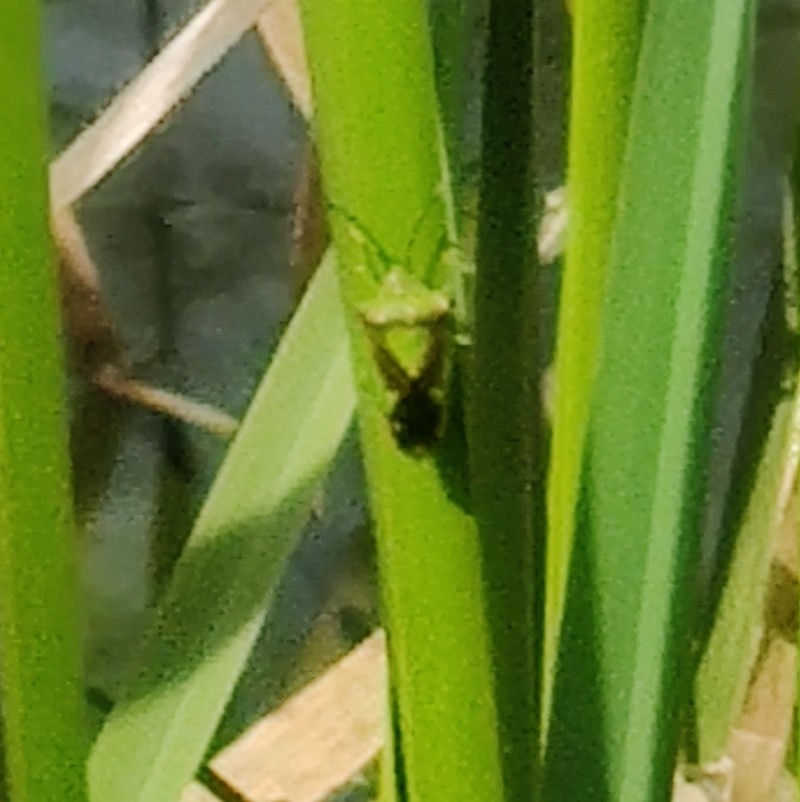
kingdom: Animalia
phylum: Arthropoda
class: Insecta
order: Hemiptera
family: Acanthosomatidae
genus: Acanthosoma
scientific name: Acanthosoma haemorrhoidale
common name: Hawthorn shieldbug
